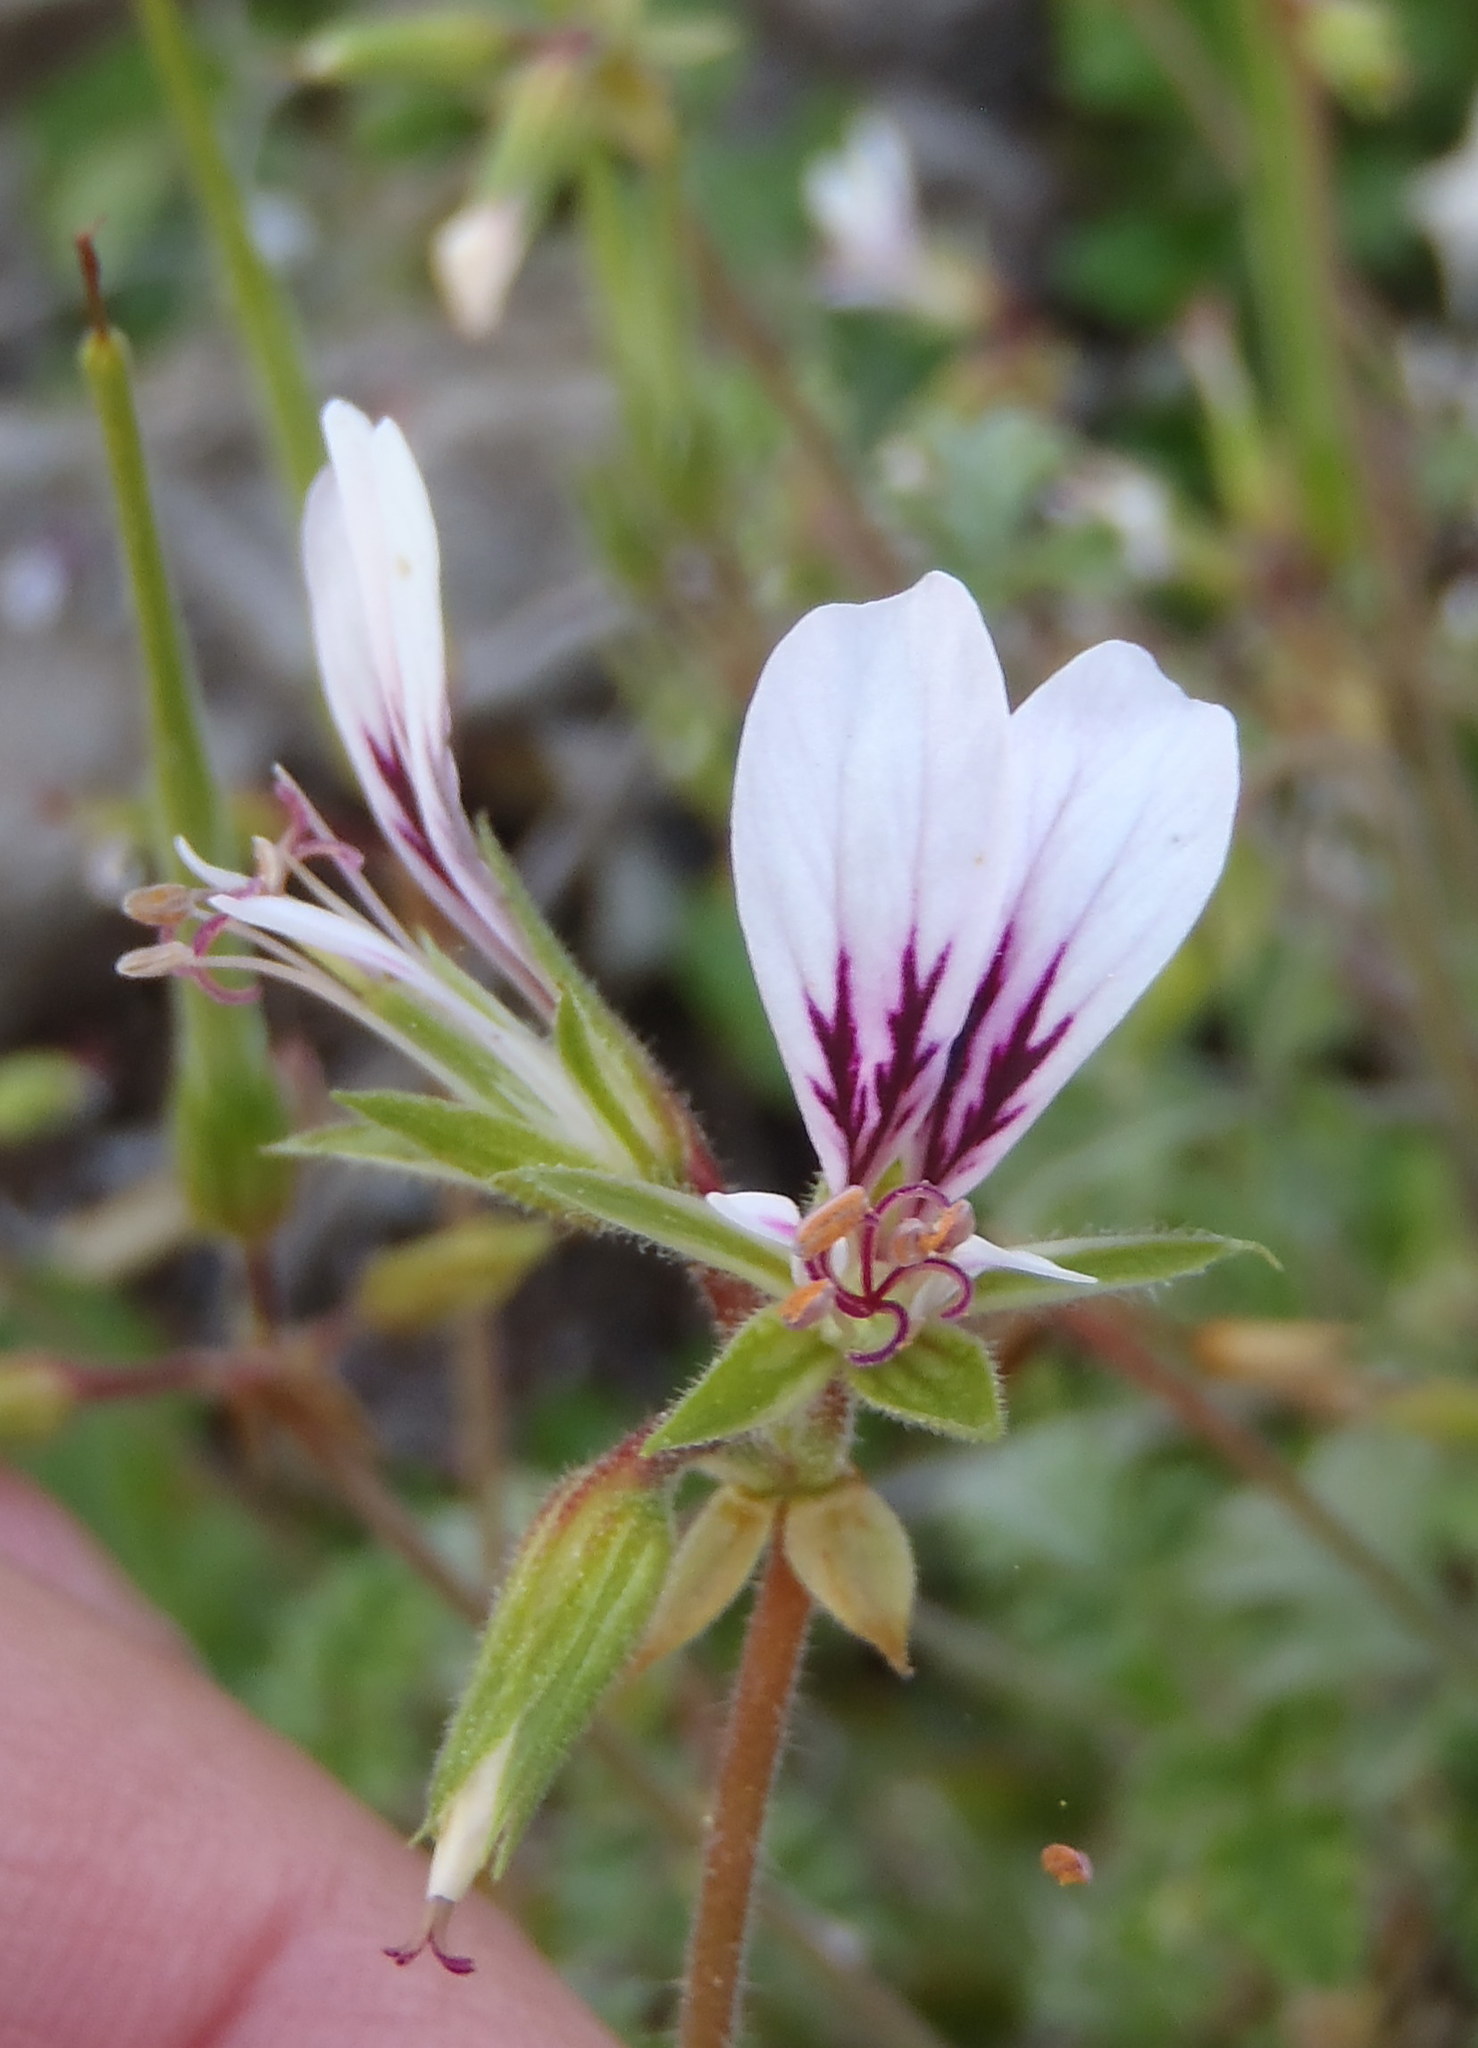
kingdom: Plantae
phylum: Tracheophyta
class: Magnoliopsida
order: Geraniales
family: Geraniaceae
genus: Pelargonium
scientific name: Pelargonium candicans
